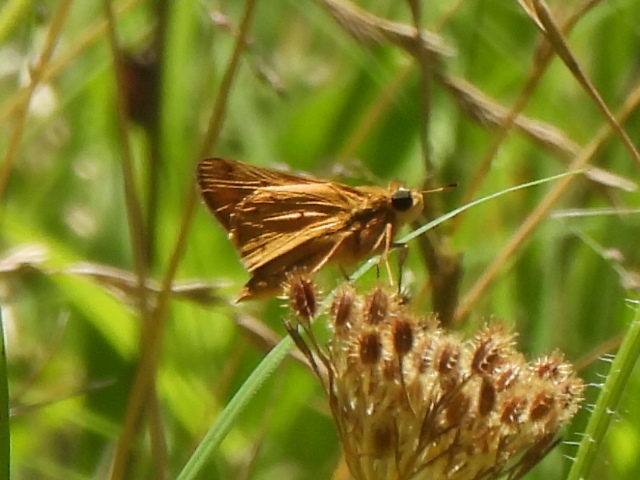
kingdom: Animalia
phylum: Arthropoda
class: Insecta
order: Lepidoptera
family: Hesperiidae
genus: Hylephila
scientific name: Hylephila phyleus
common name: Fiery skipper
